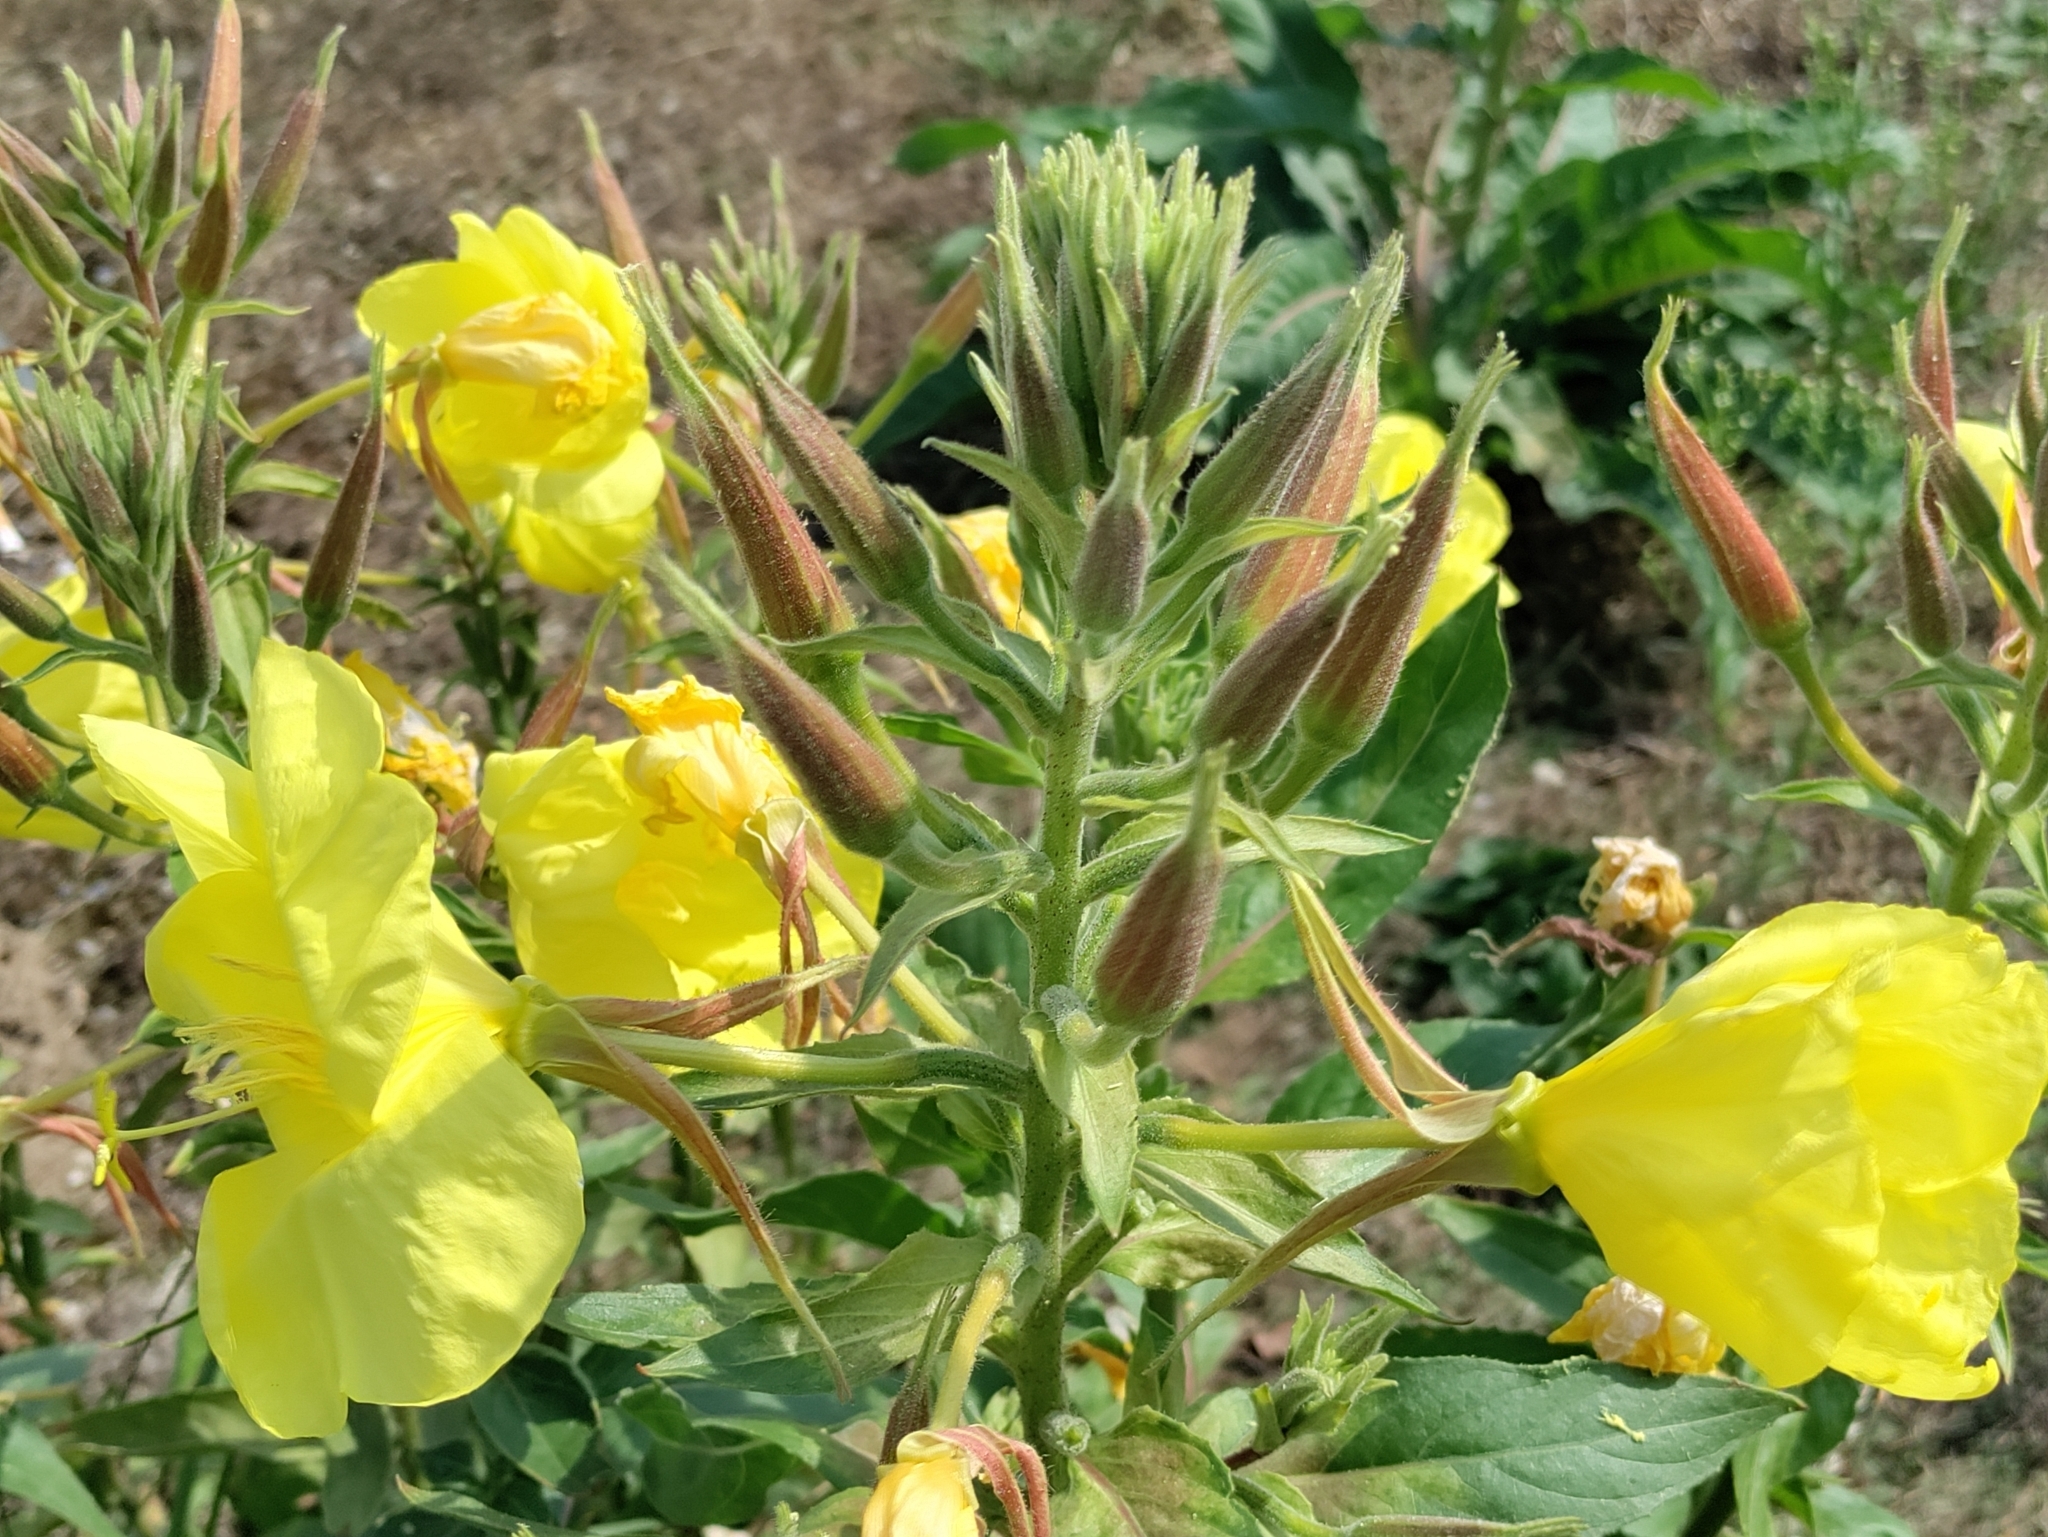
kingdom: Plantae
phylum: Tracheophyta
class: Magnoliopsida
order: Myrtales
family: Onagraceae
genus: Oenothera
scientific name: Oenothera glazioviana
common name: Large-flowered evening-primrose
